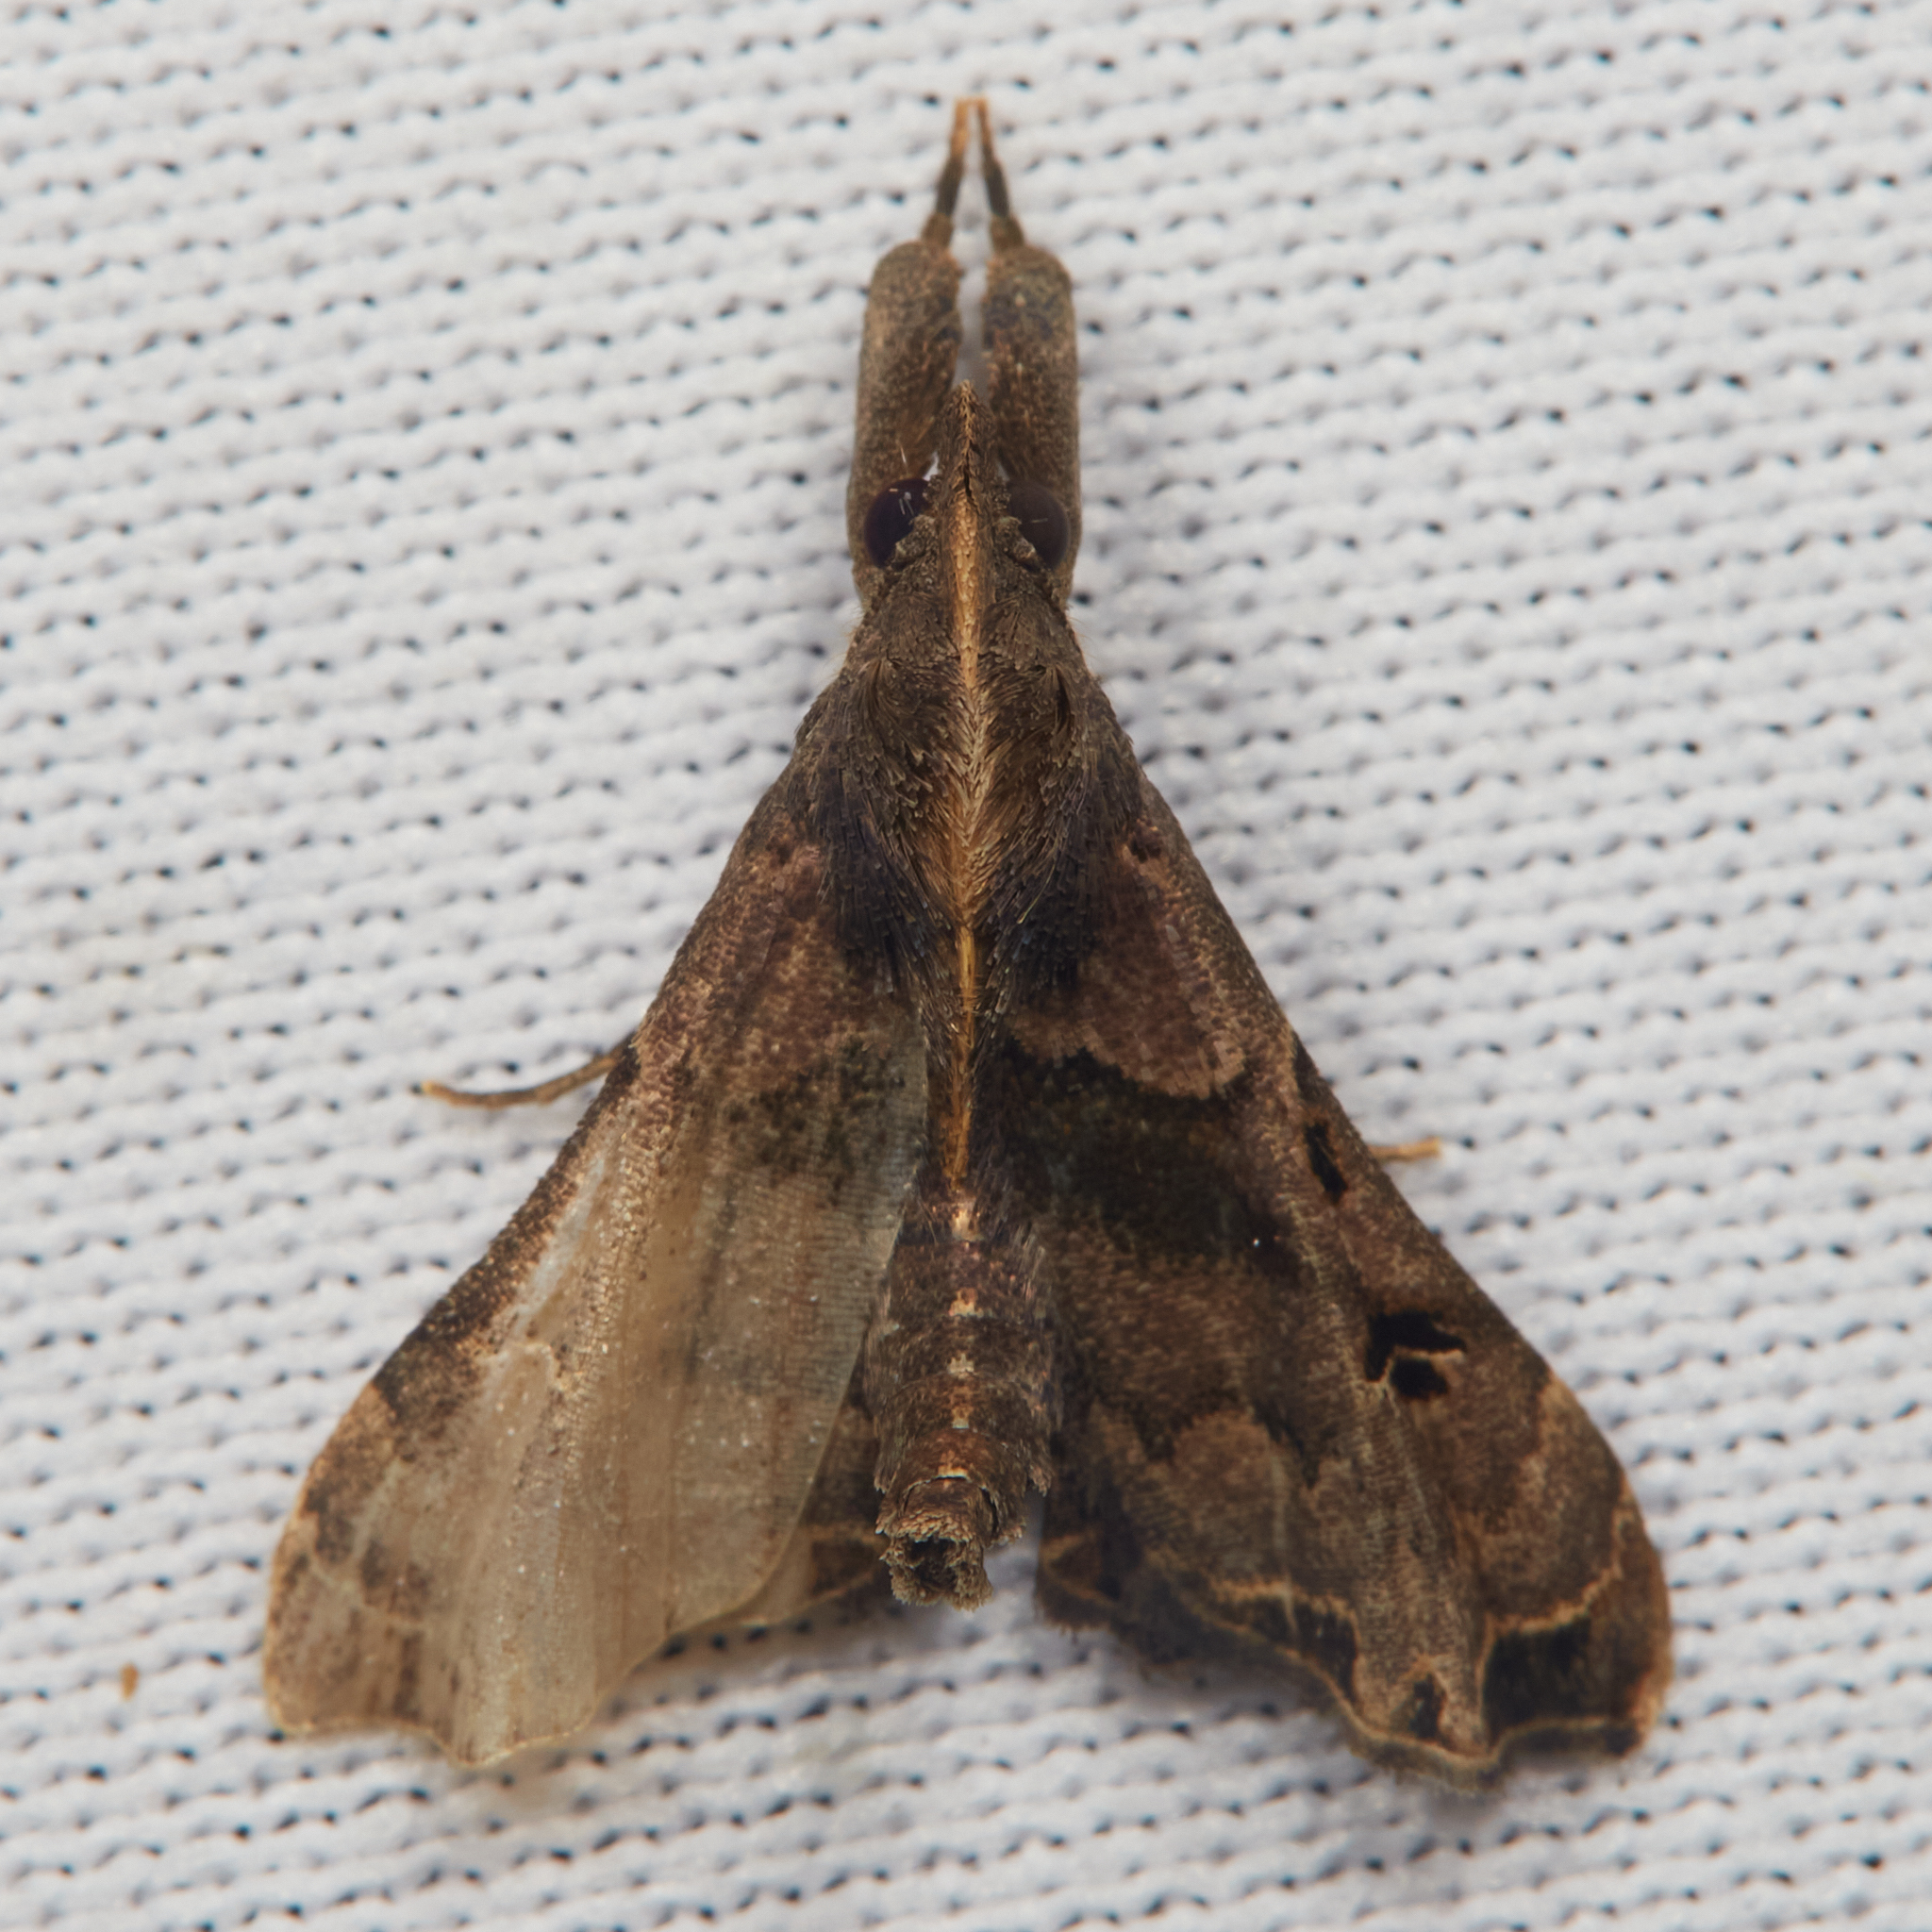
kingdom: Animalia
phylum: Arthropoda
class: Insecta
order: Lepidoptera
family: Erebidae
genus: Palthis
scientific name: Palthis asopialis
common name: Faint-spotted palthis moth
